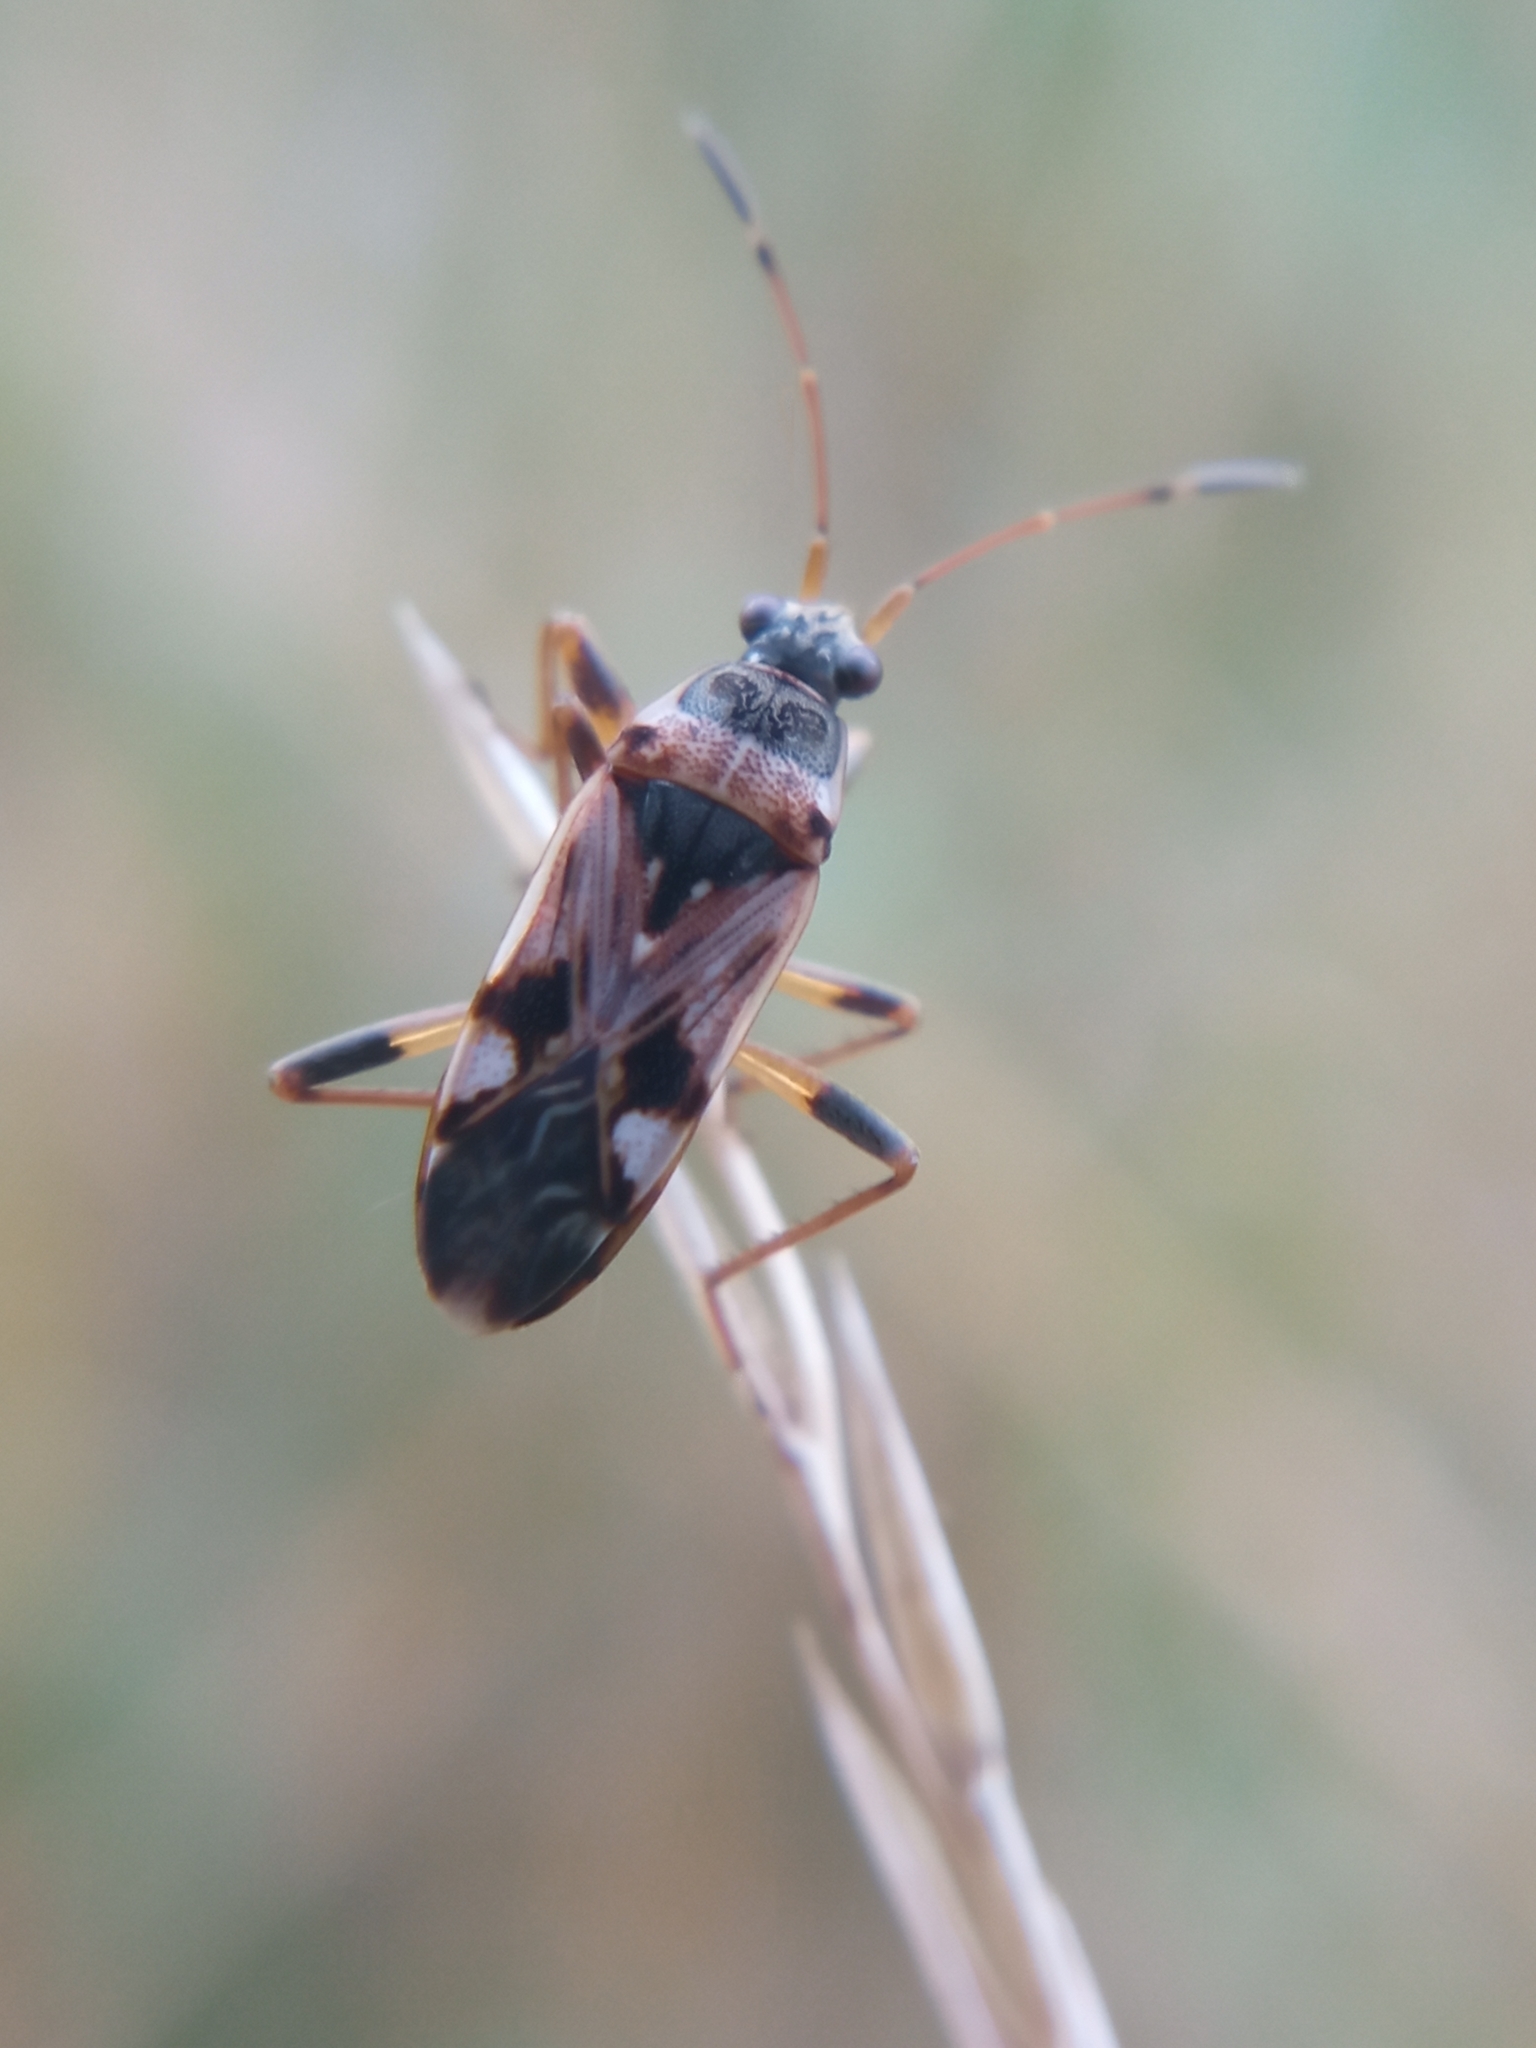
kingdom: Animalia
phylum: Arthropoda
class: Insecta
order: Hemiptera
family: Rhyparochromidae
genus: Beosus
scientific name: Beosus maritimus
